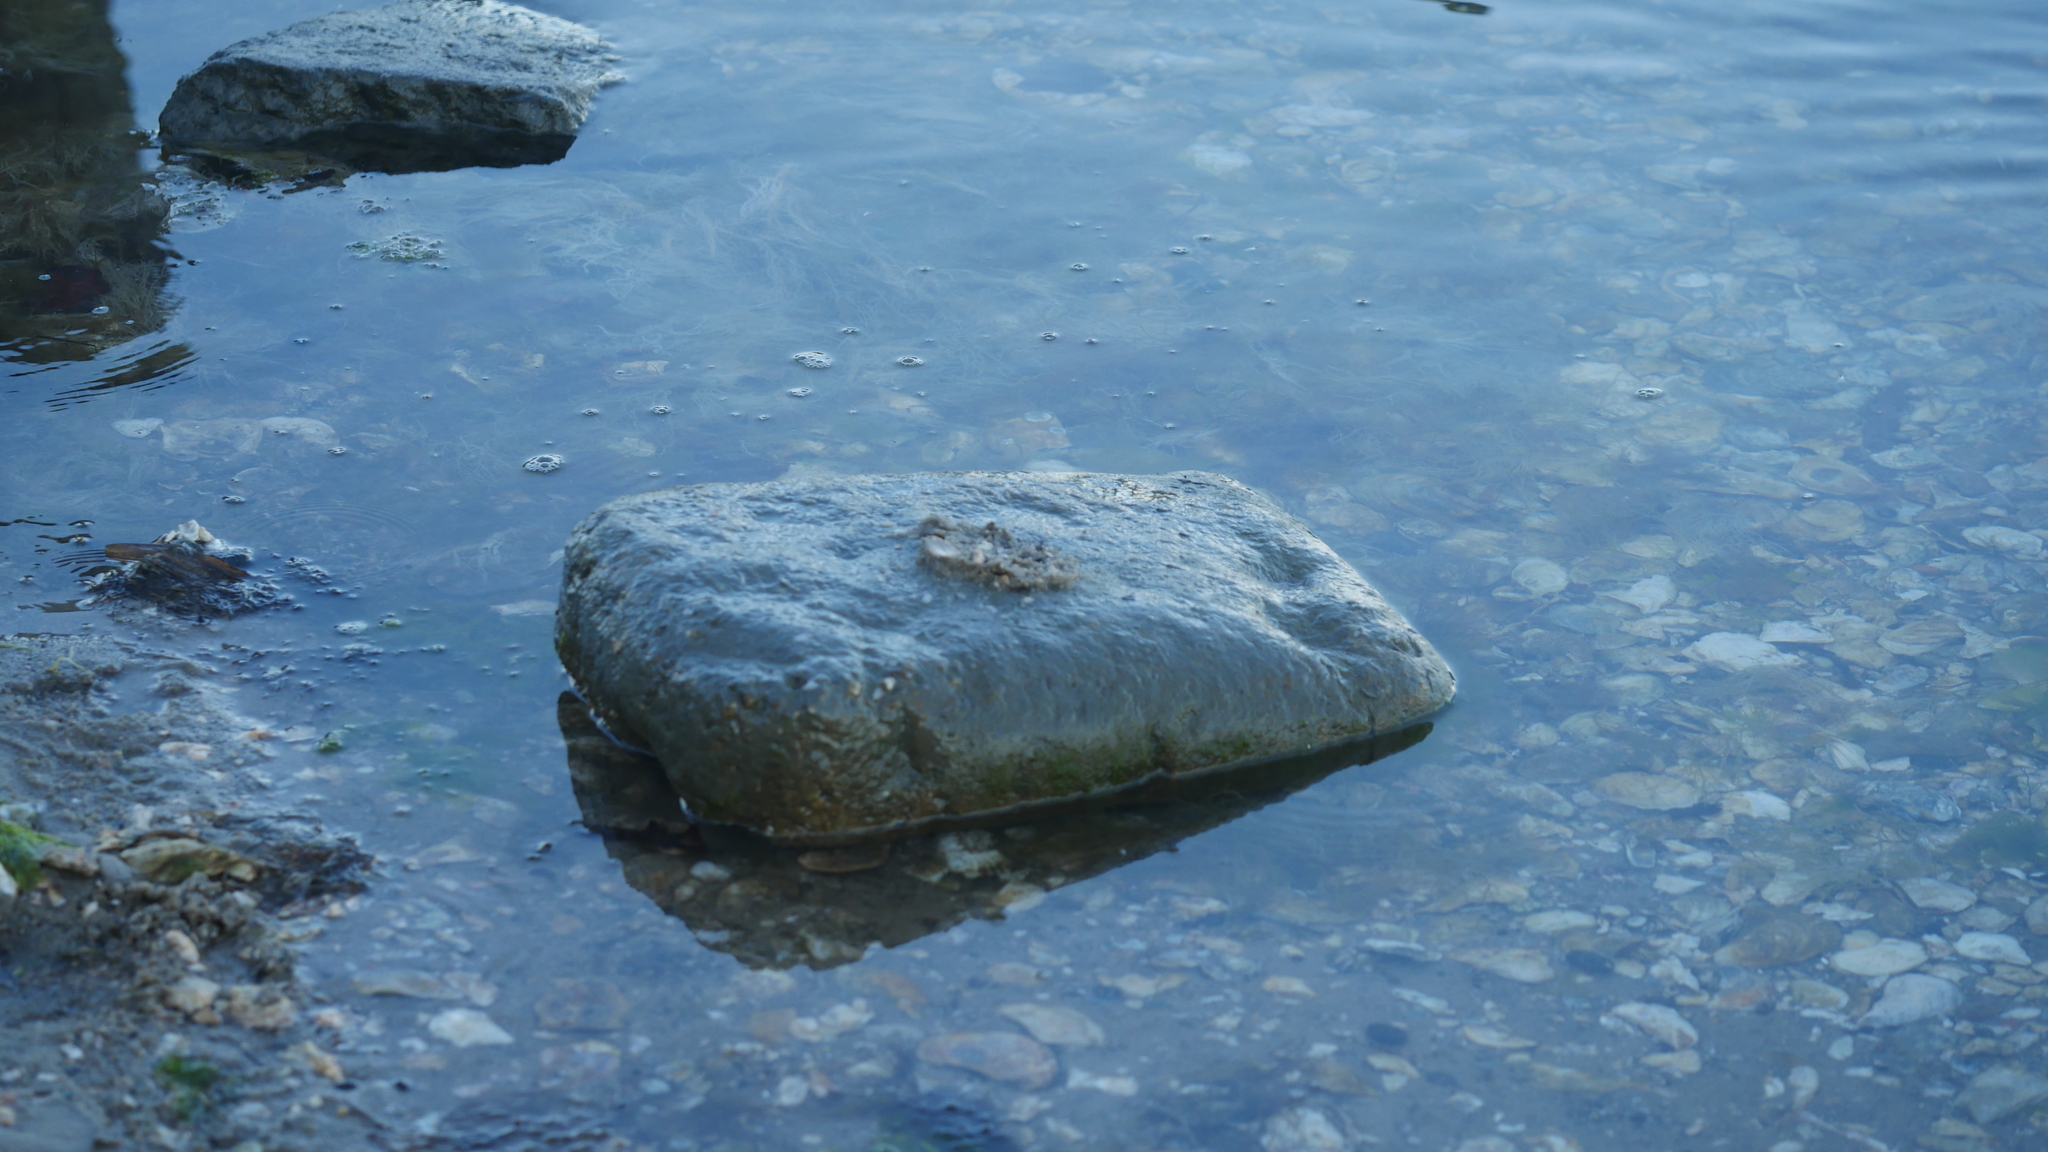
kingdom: Animalia
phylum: Arthropoda
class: Malacostraca
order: Isopoda
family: Halophilosciidae
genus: Littorophiloscia
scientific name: Littorophiloscia vittata
